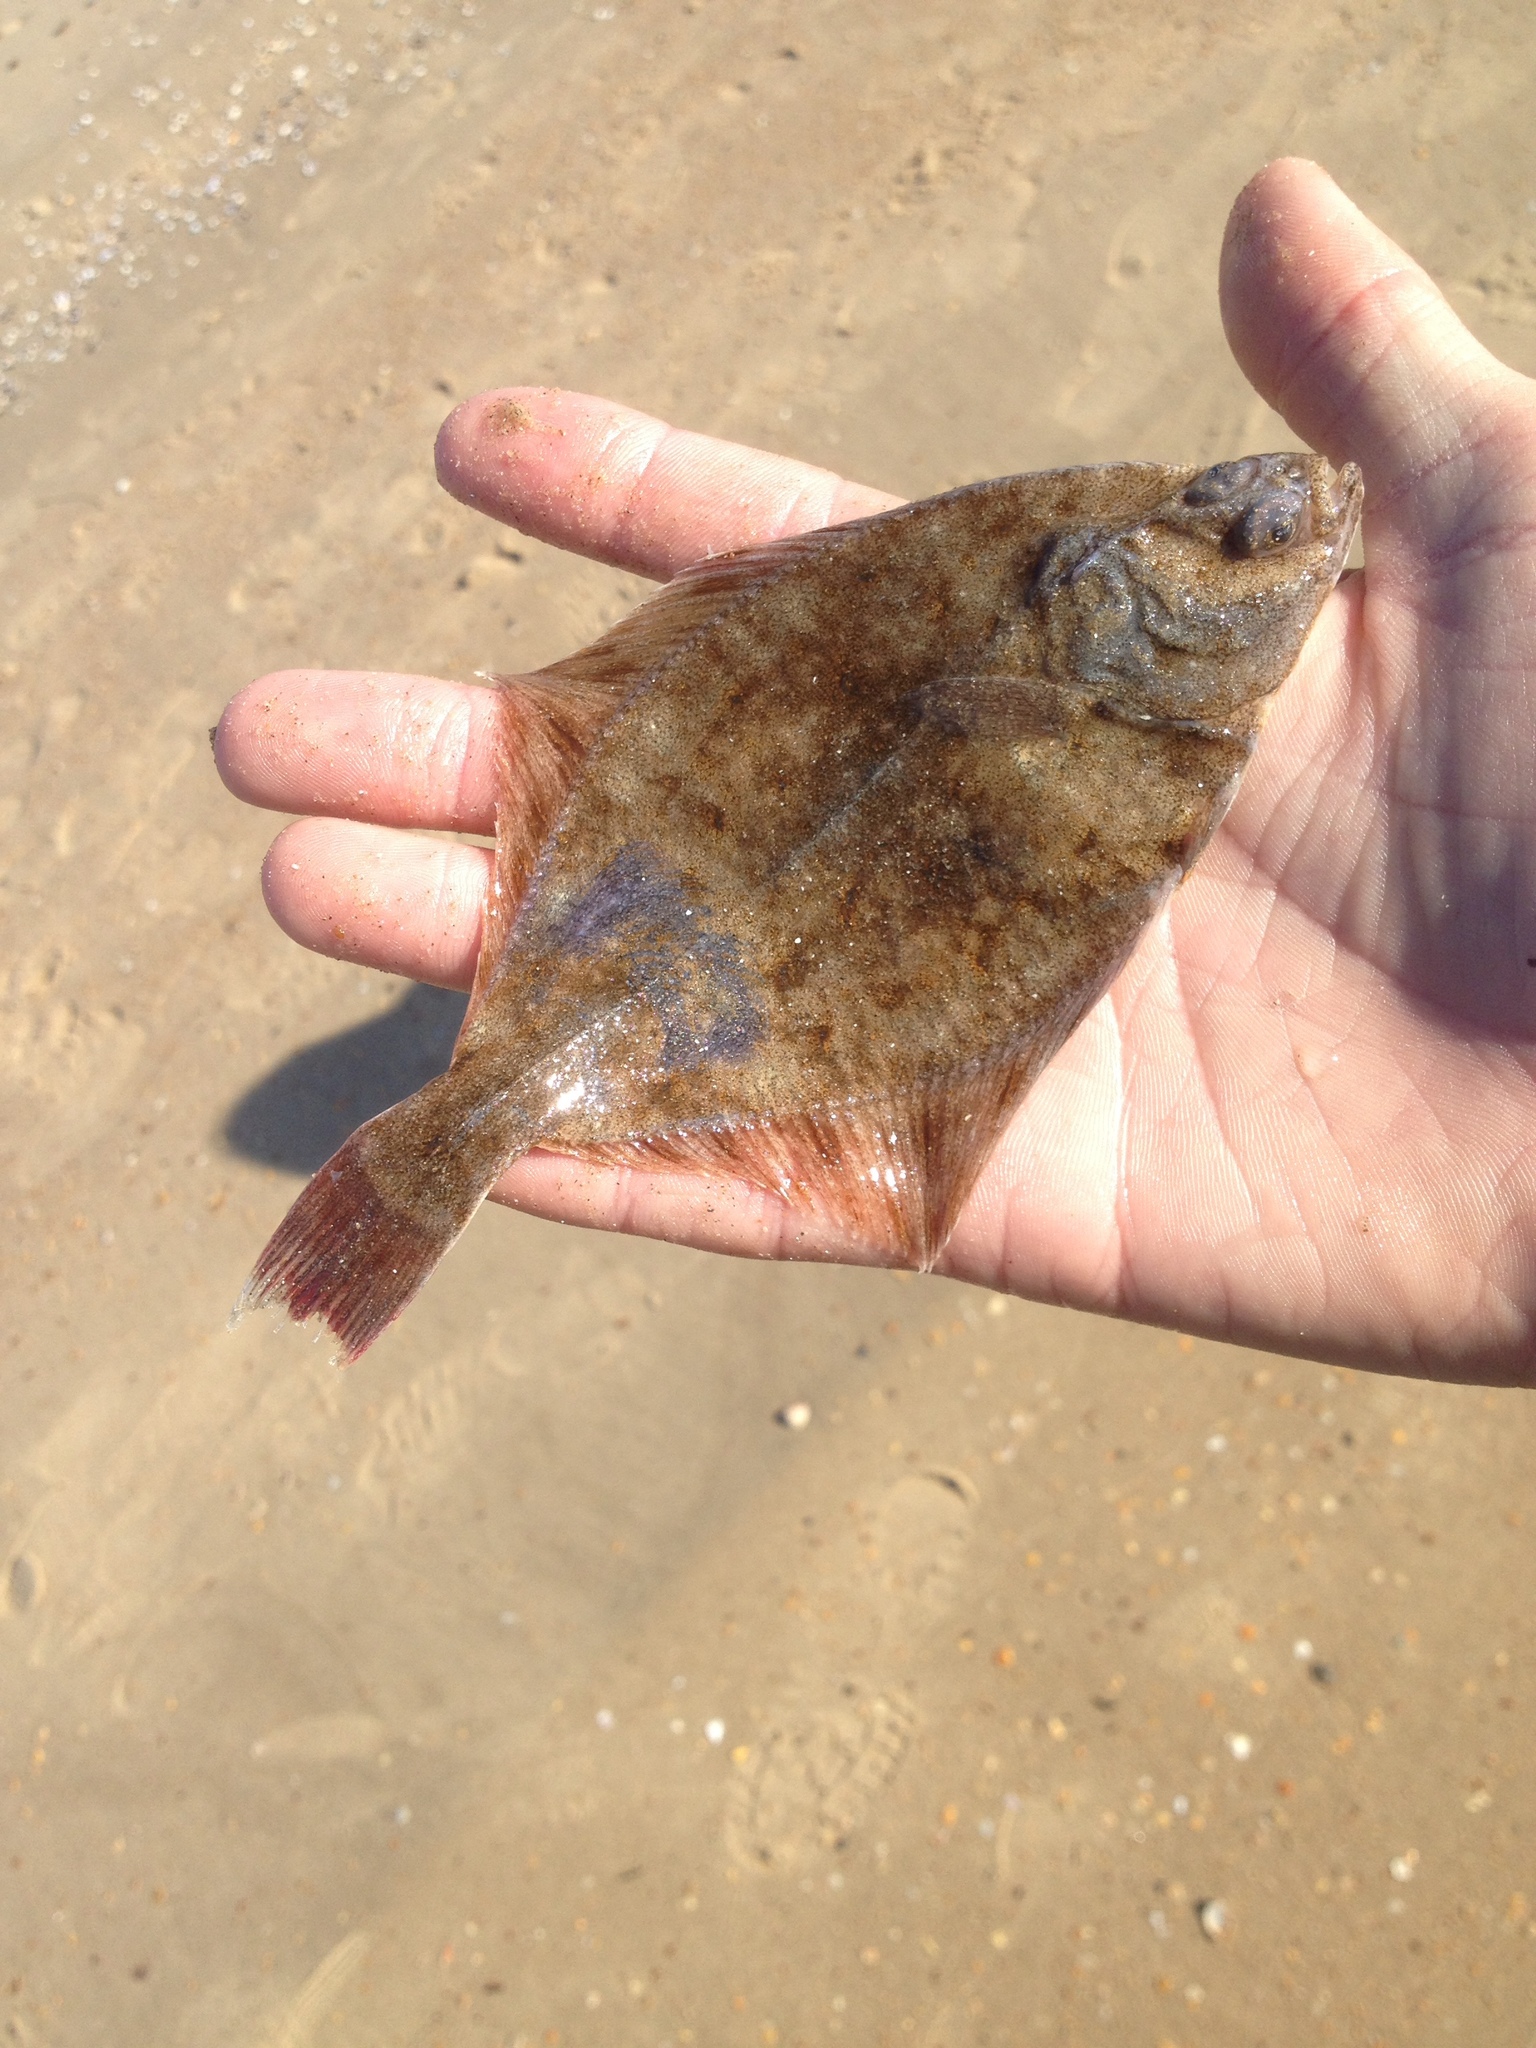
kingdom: Animalia
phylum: Chordata
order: Pleuronectiformes
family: Pleuronectidae
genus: Platichthys
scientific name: Platichthys flesus
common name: European flounder
